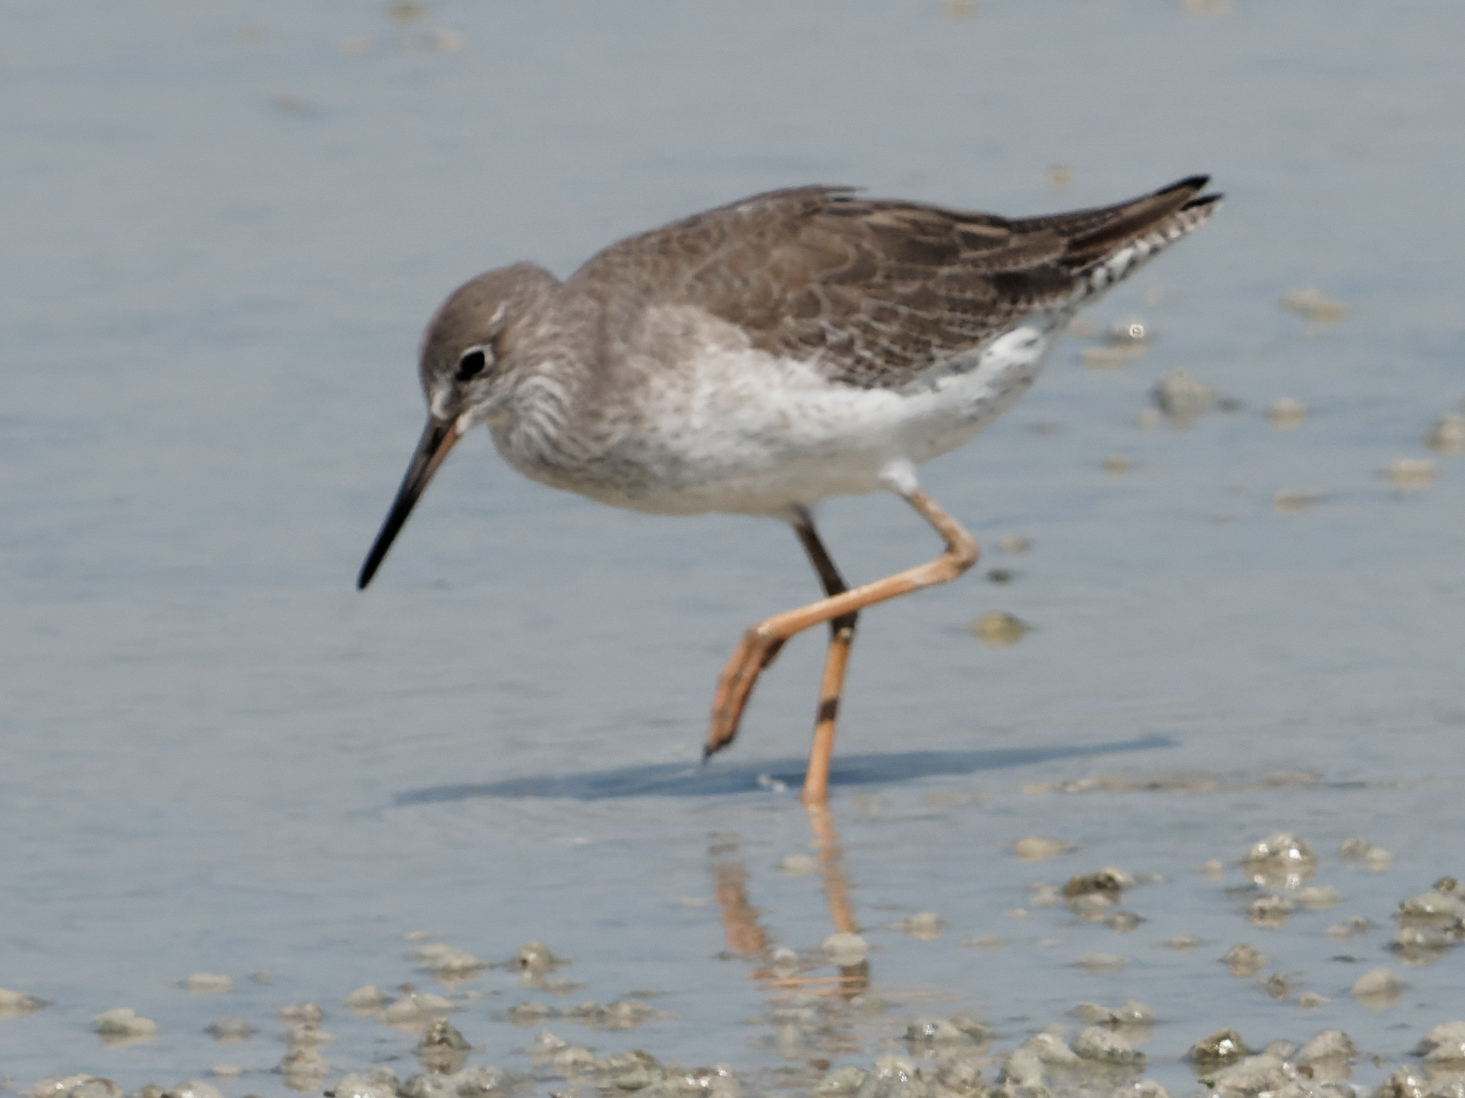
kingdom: Animalia
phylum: Chordata
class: Aves
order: Charadriiformes
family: Scolopacidae
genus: Tringa
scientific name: Tringa totanus
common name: Common redshank
